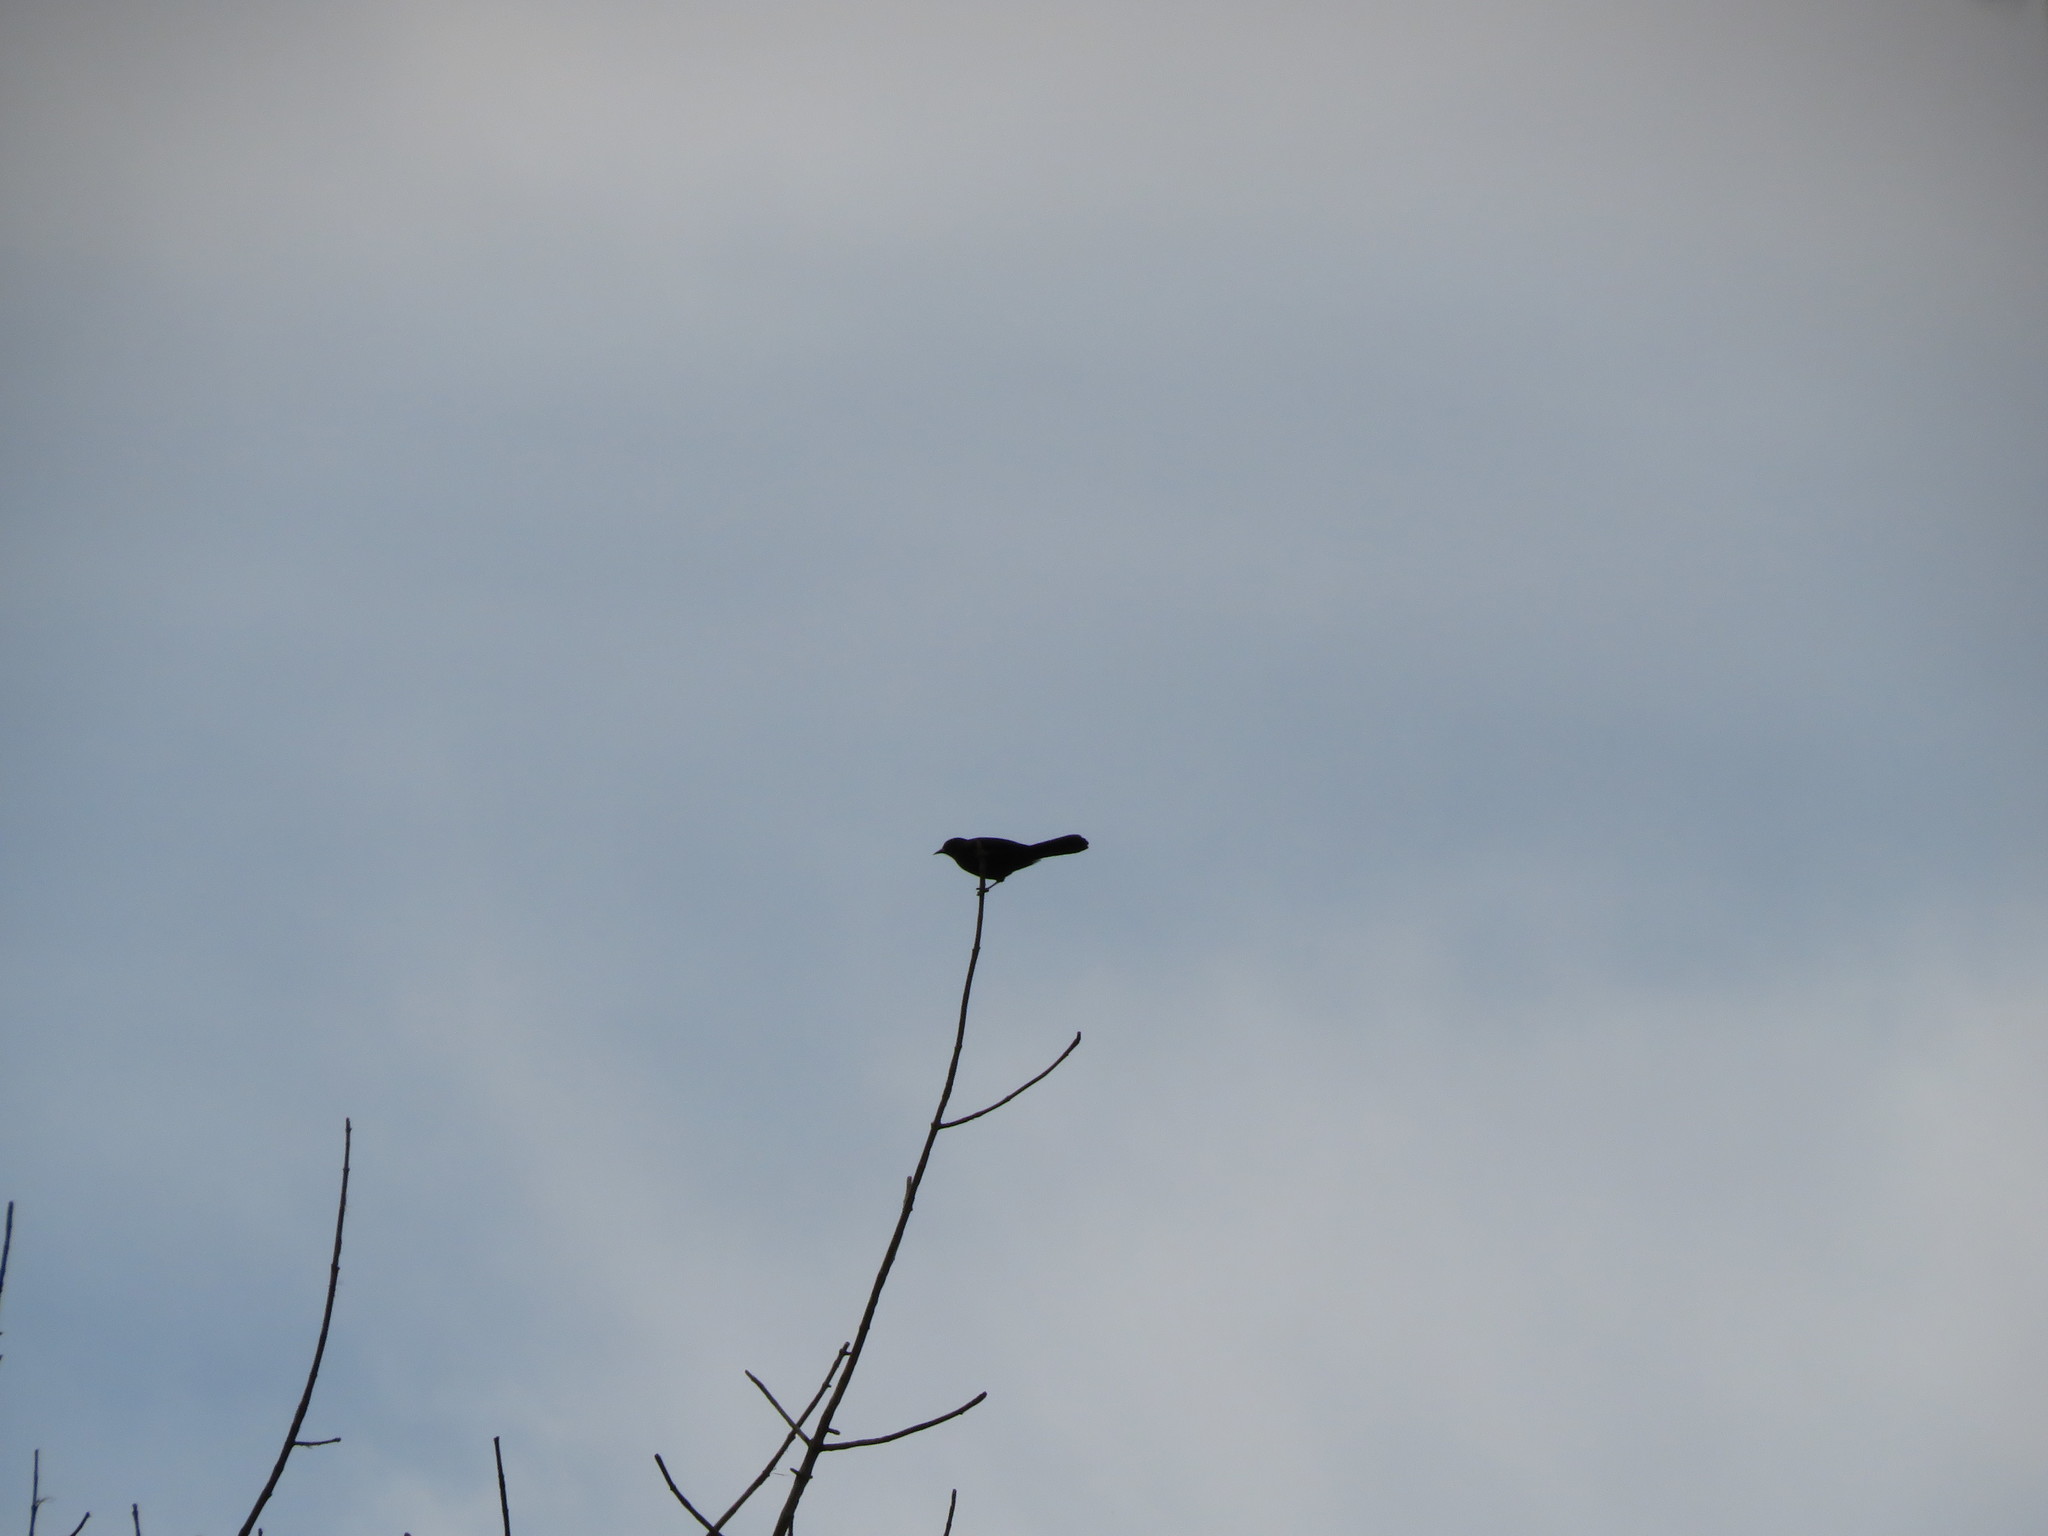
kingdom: Animalia
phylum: Chordata
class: Aves
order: Passeriformes
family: Icteridae
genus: Icterus
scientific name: Icterus cayanensis
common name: Epaulet oriole
